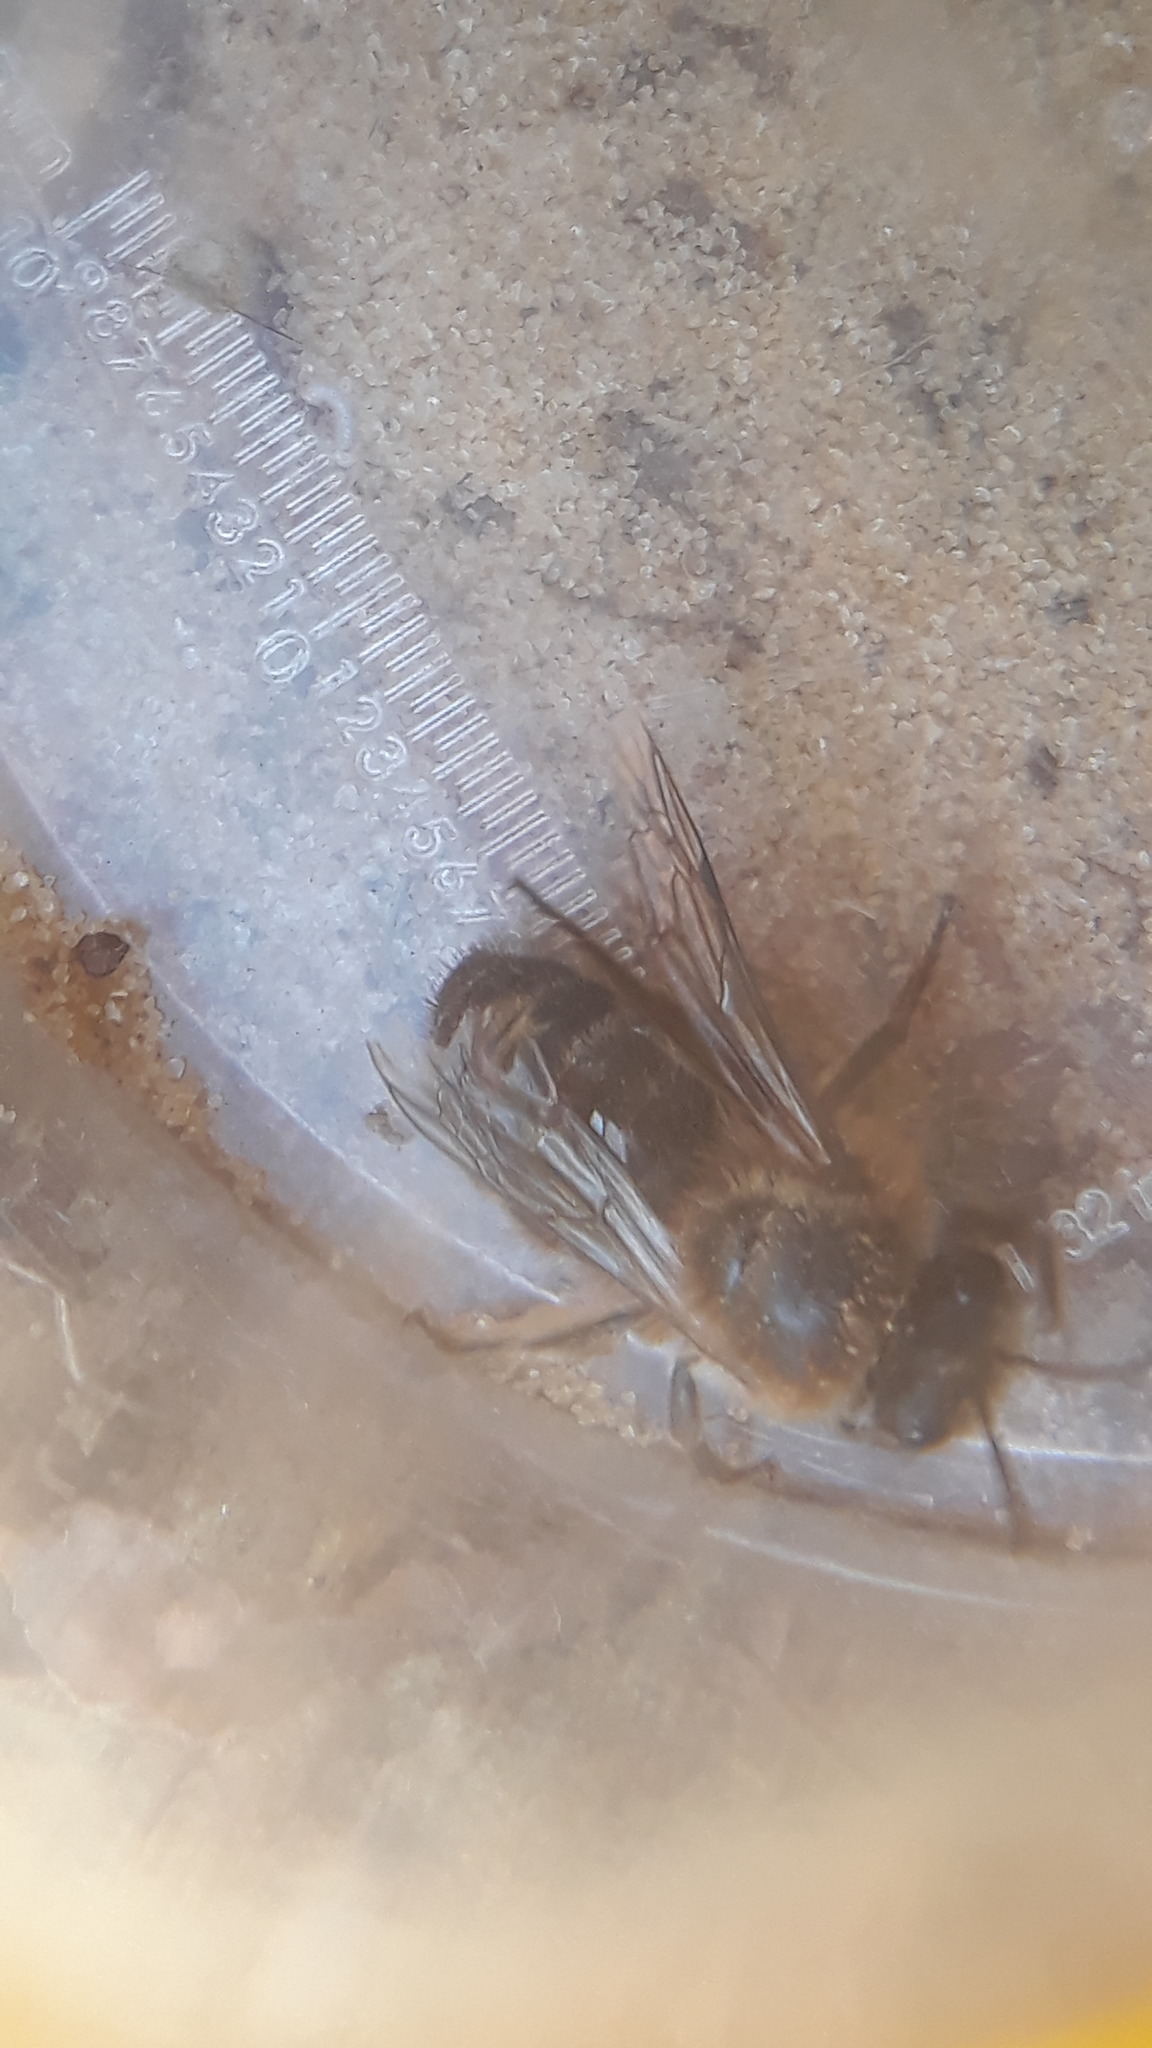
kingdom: Animalia
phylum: Arthropoda
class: Insecta
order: Hymenoptera
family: Colletidae
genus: Colletes
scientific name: Colletes cunicularius
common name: Early colletes
